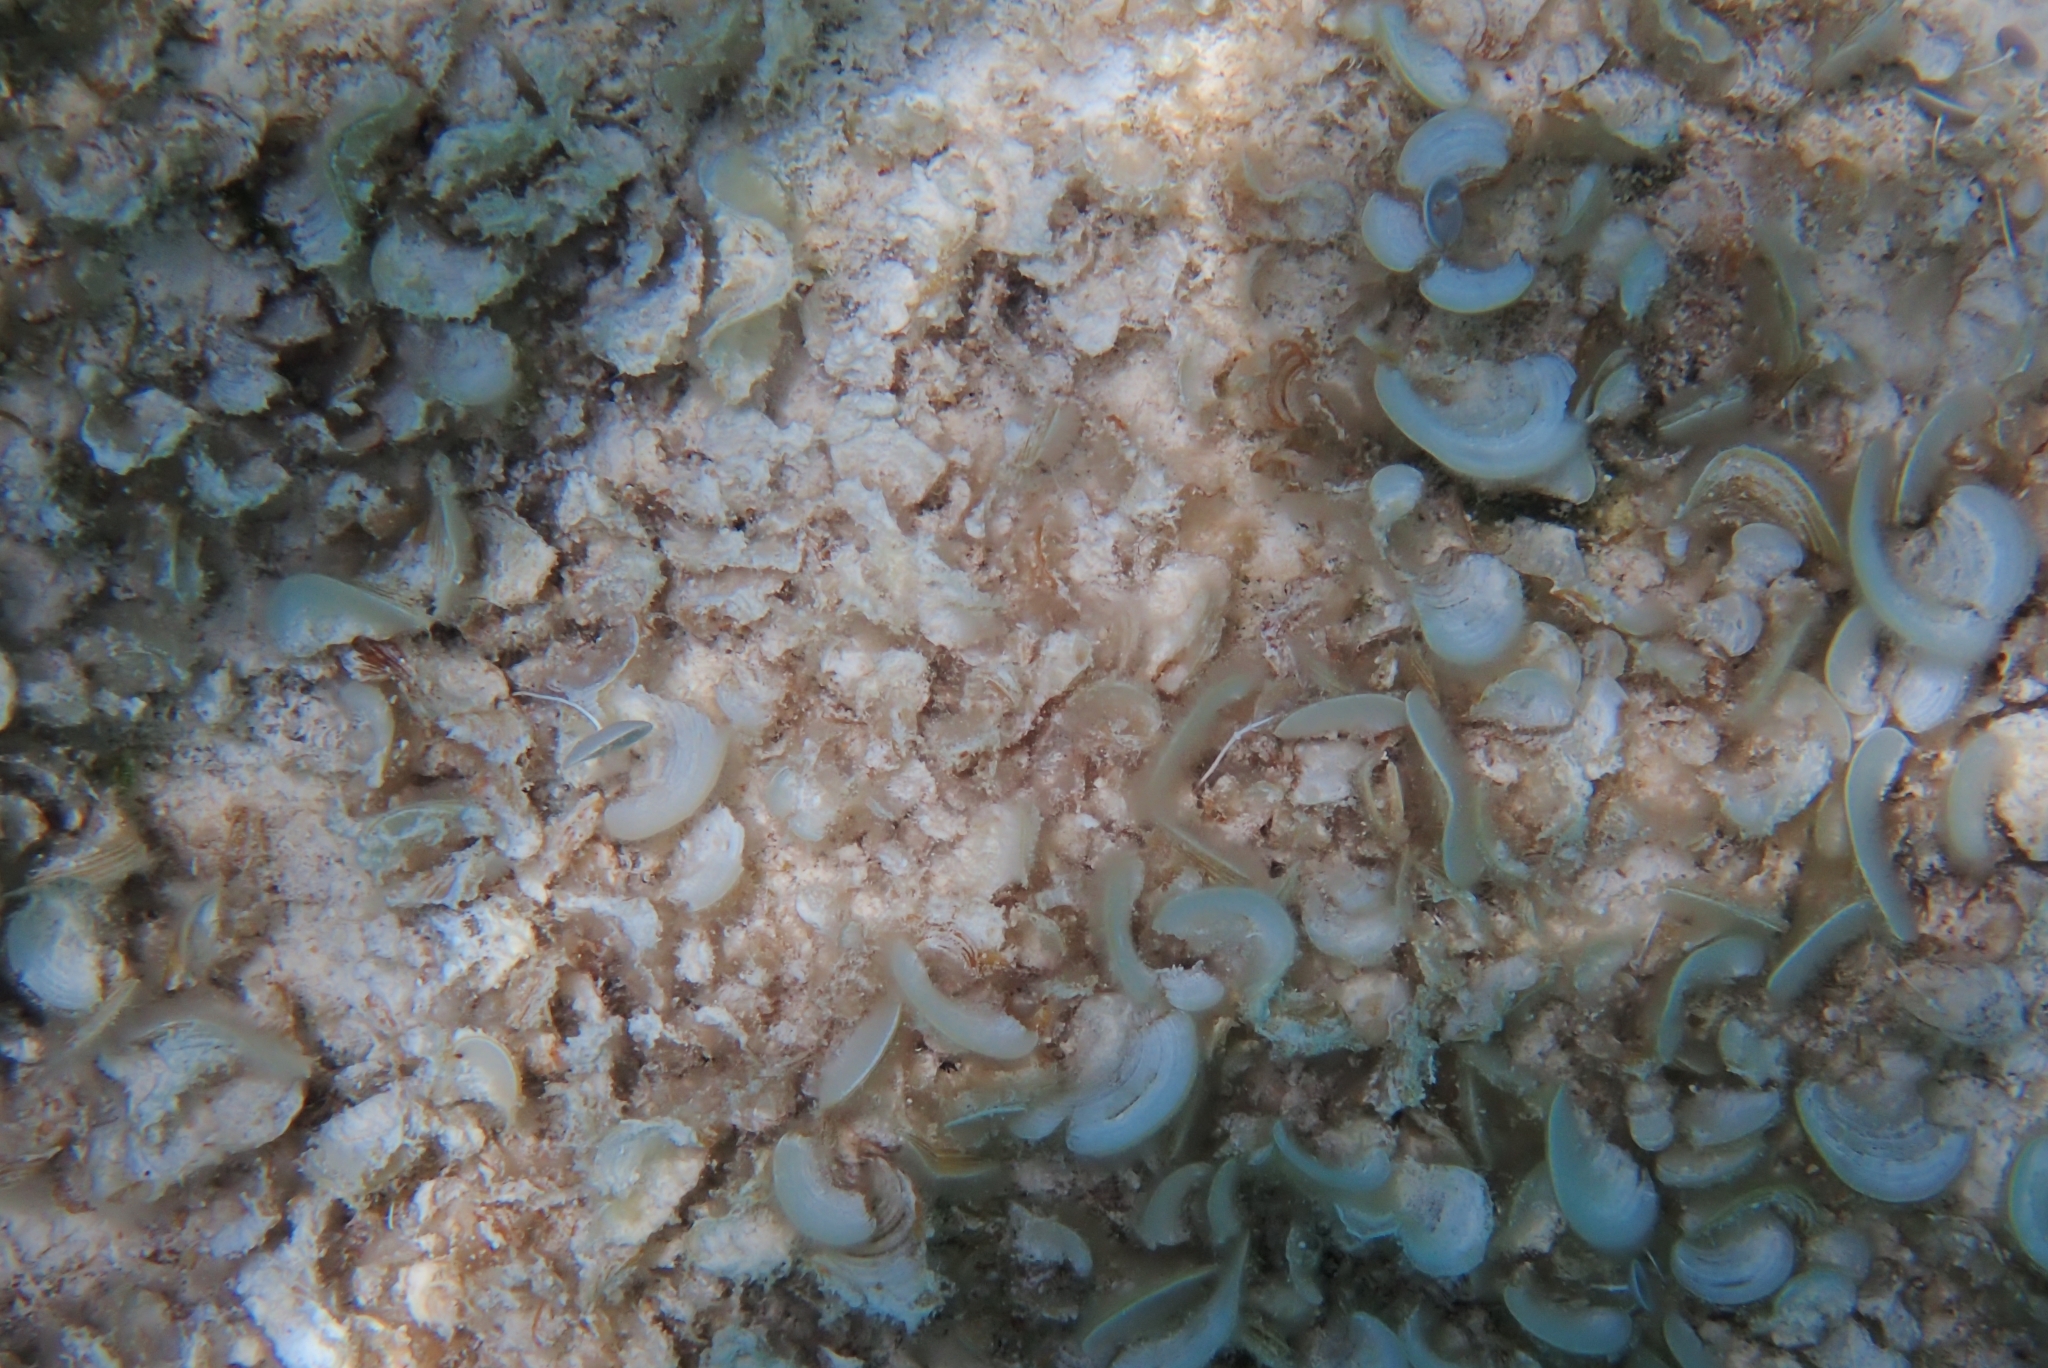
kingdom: Chromista
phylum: Ochrophyta
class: Phaeophyceae
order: Dictyotales
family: Dictyotaceae
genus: Padina
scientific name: Padina
